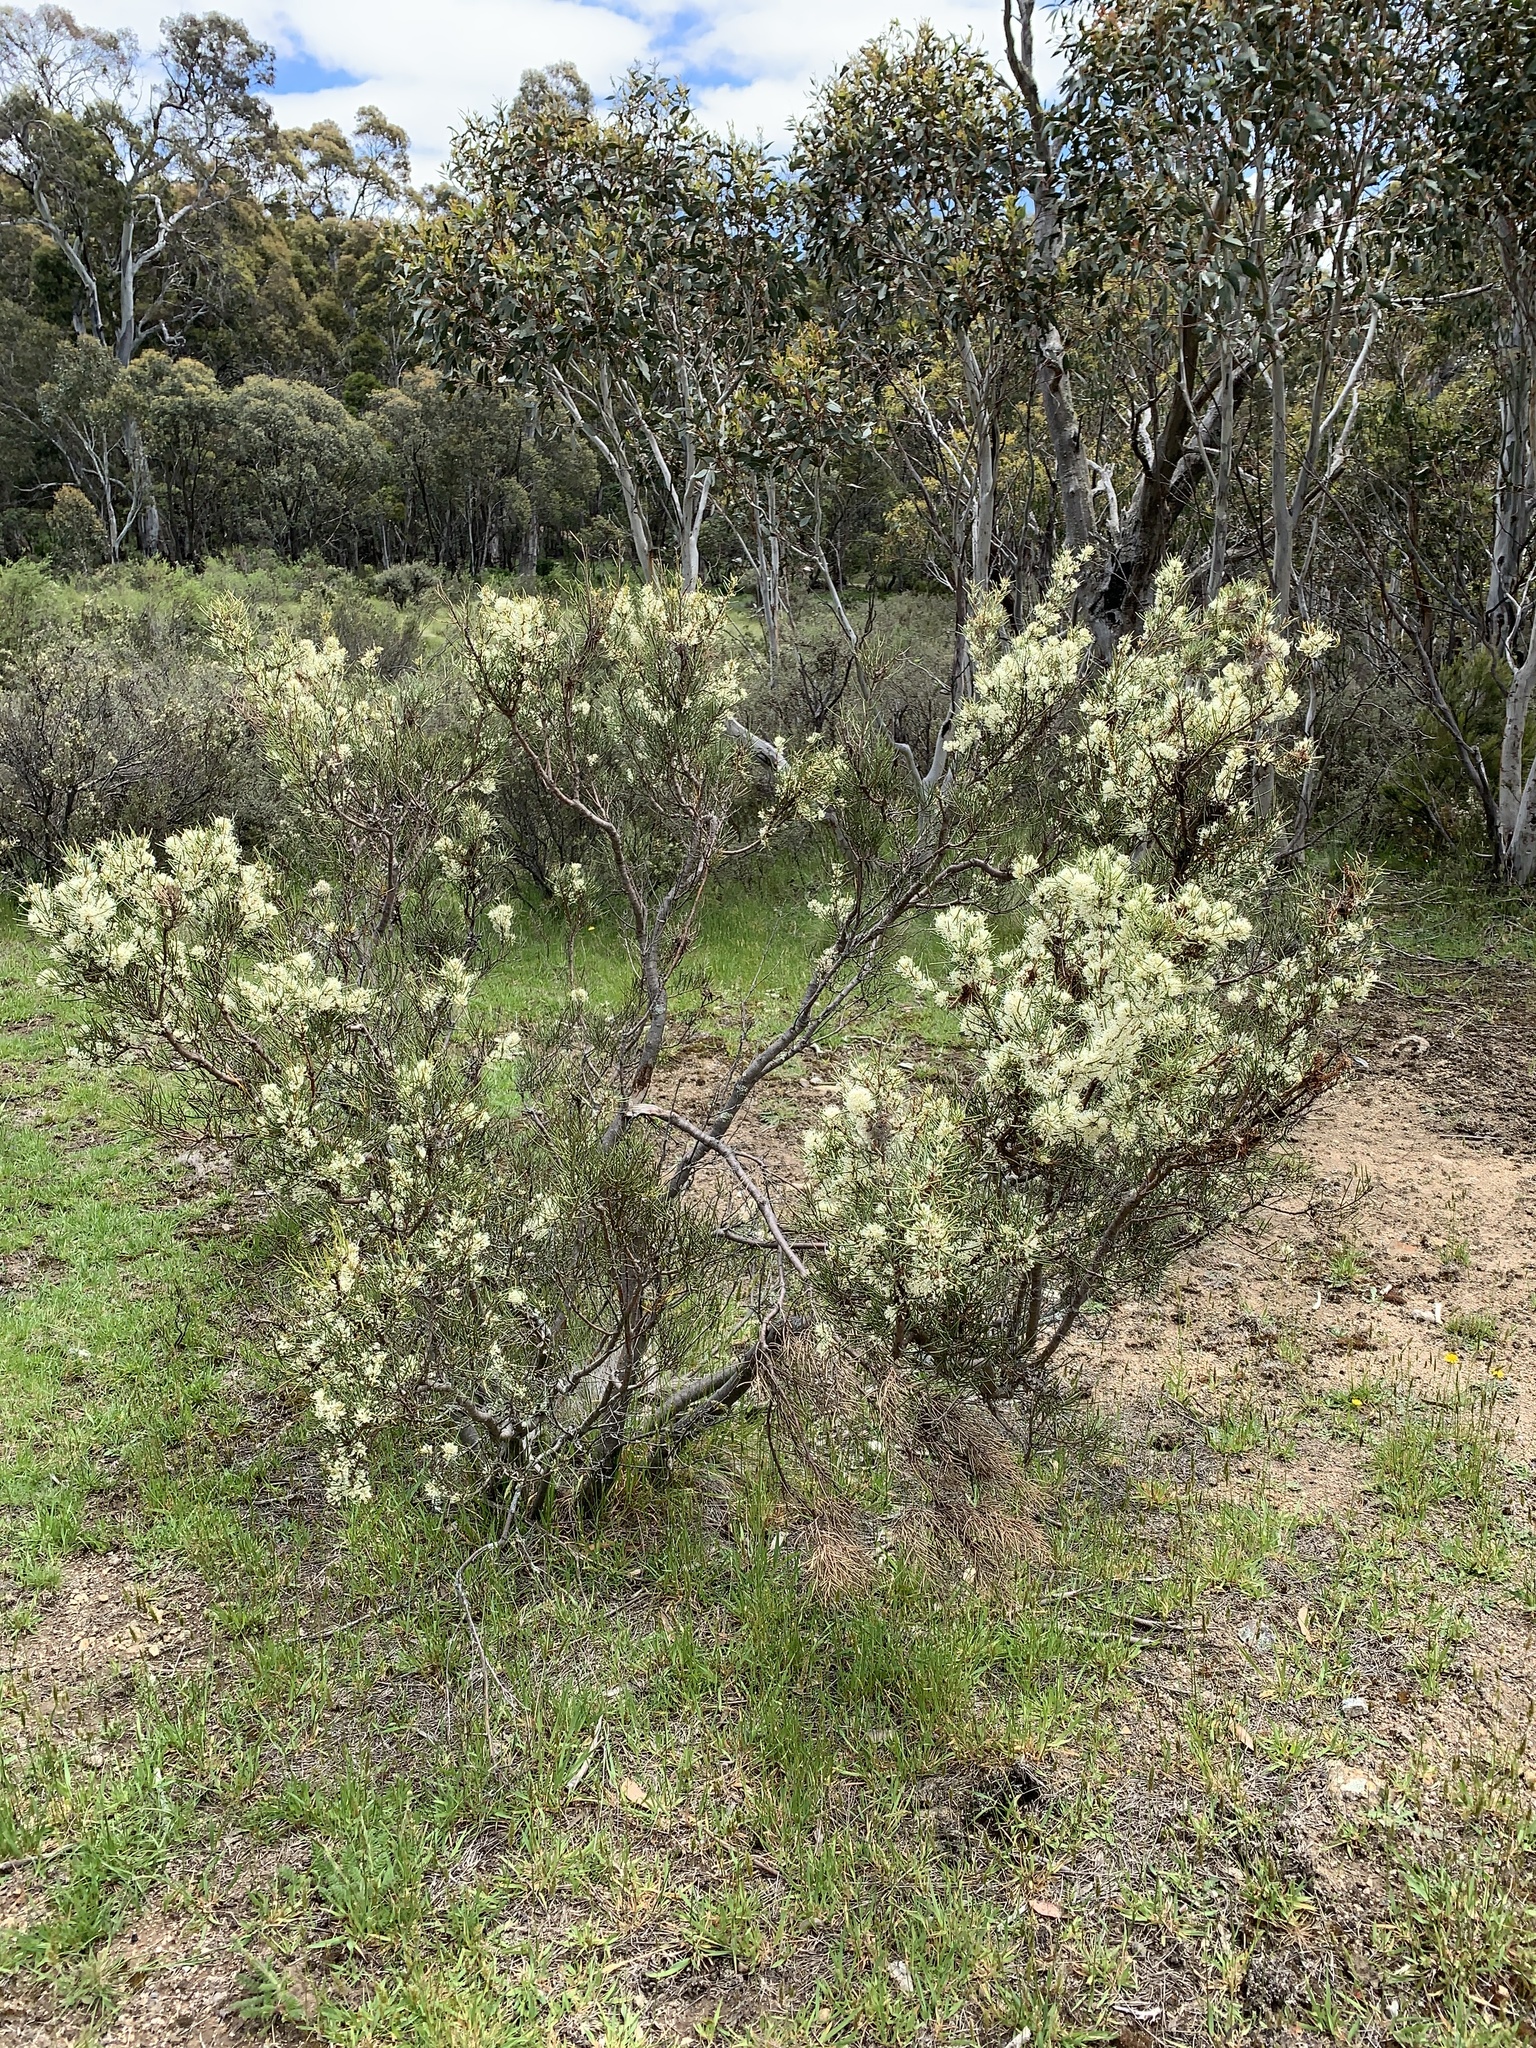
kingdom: Plantae
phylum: Tracheophyta
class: Magnoliopsida
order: Proteales
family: Proteaceae
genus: Hakea
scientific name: Hakea microcarpa
